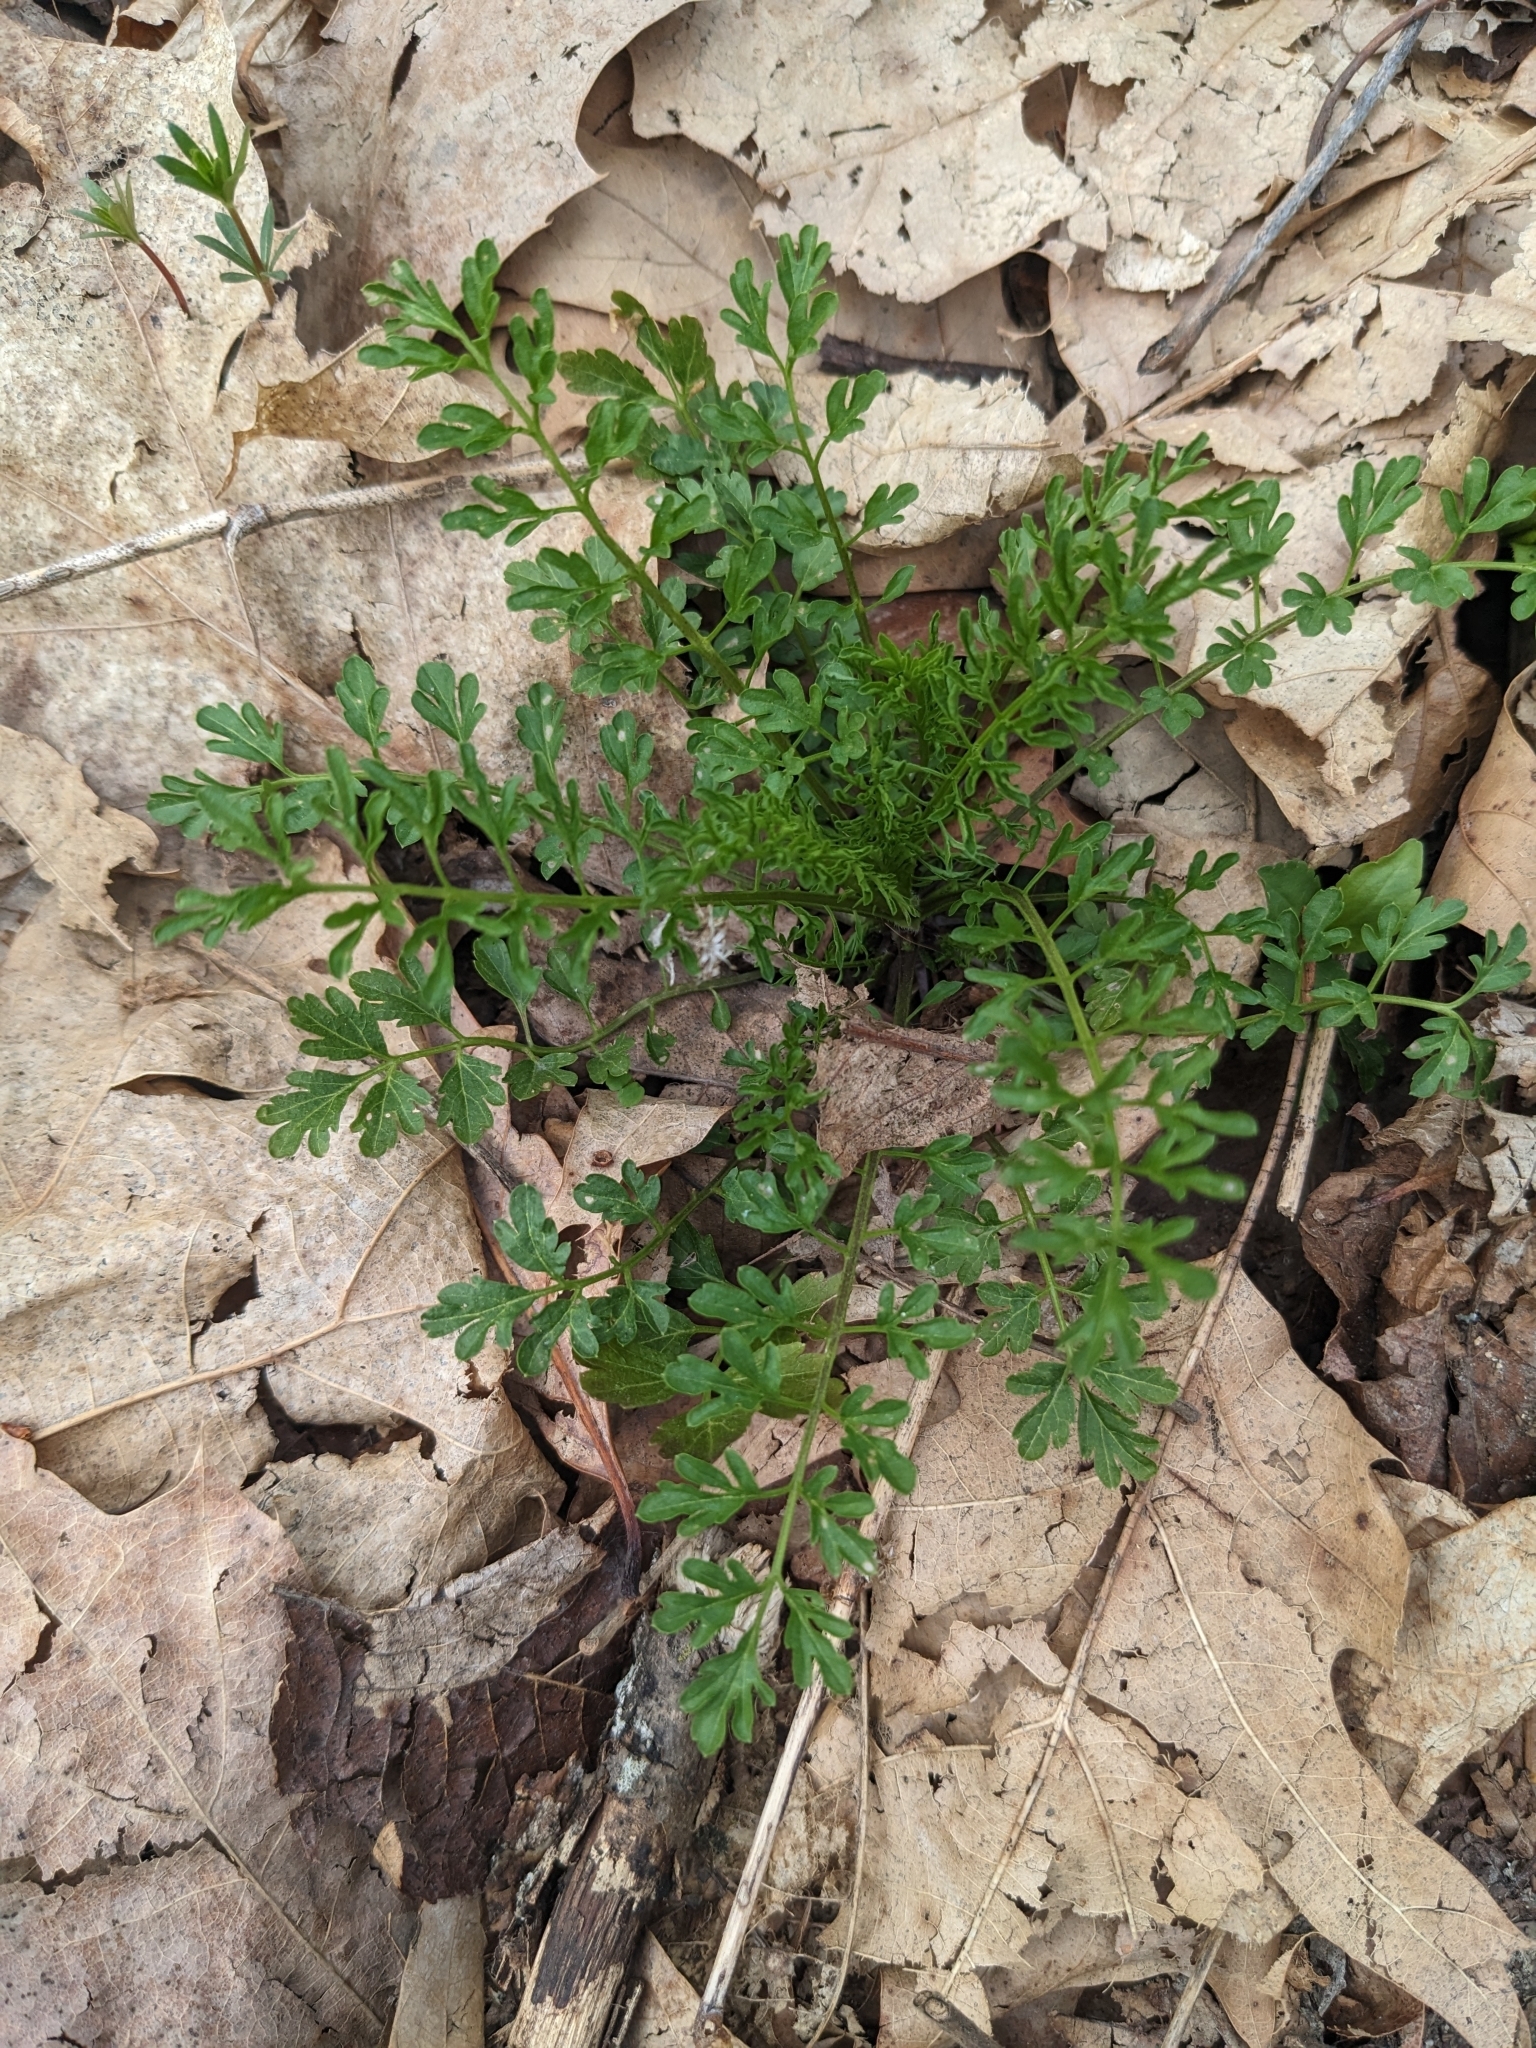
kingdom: Plantae
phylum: Tracheophyta
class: Magnoliopsida
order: Brassicales
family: Brassicaceae
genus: Cardamine
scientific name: Cardamine impatiens
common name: Narrow-leaved bitter-cress
